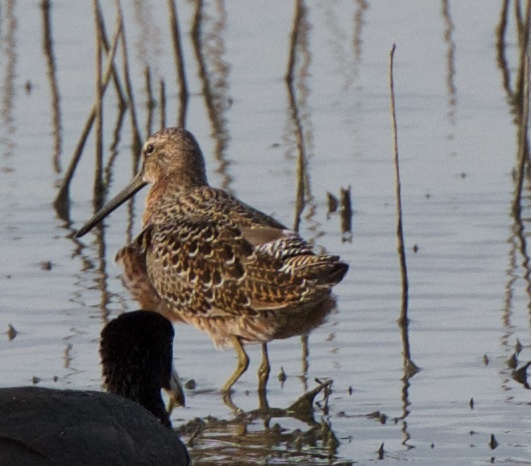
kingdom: Animalia
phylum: Chordata
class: Aves
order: Charadriiformes
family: Scolopacidae
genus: Limnodromus
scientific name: Limnodromus scolopaceus
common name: Long-billed dowitcher
